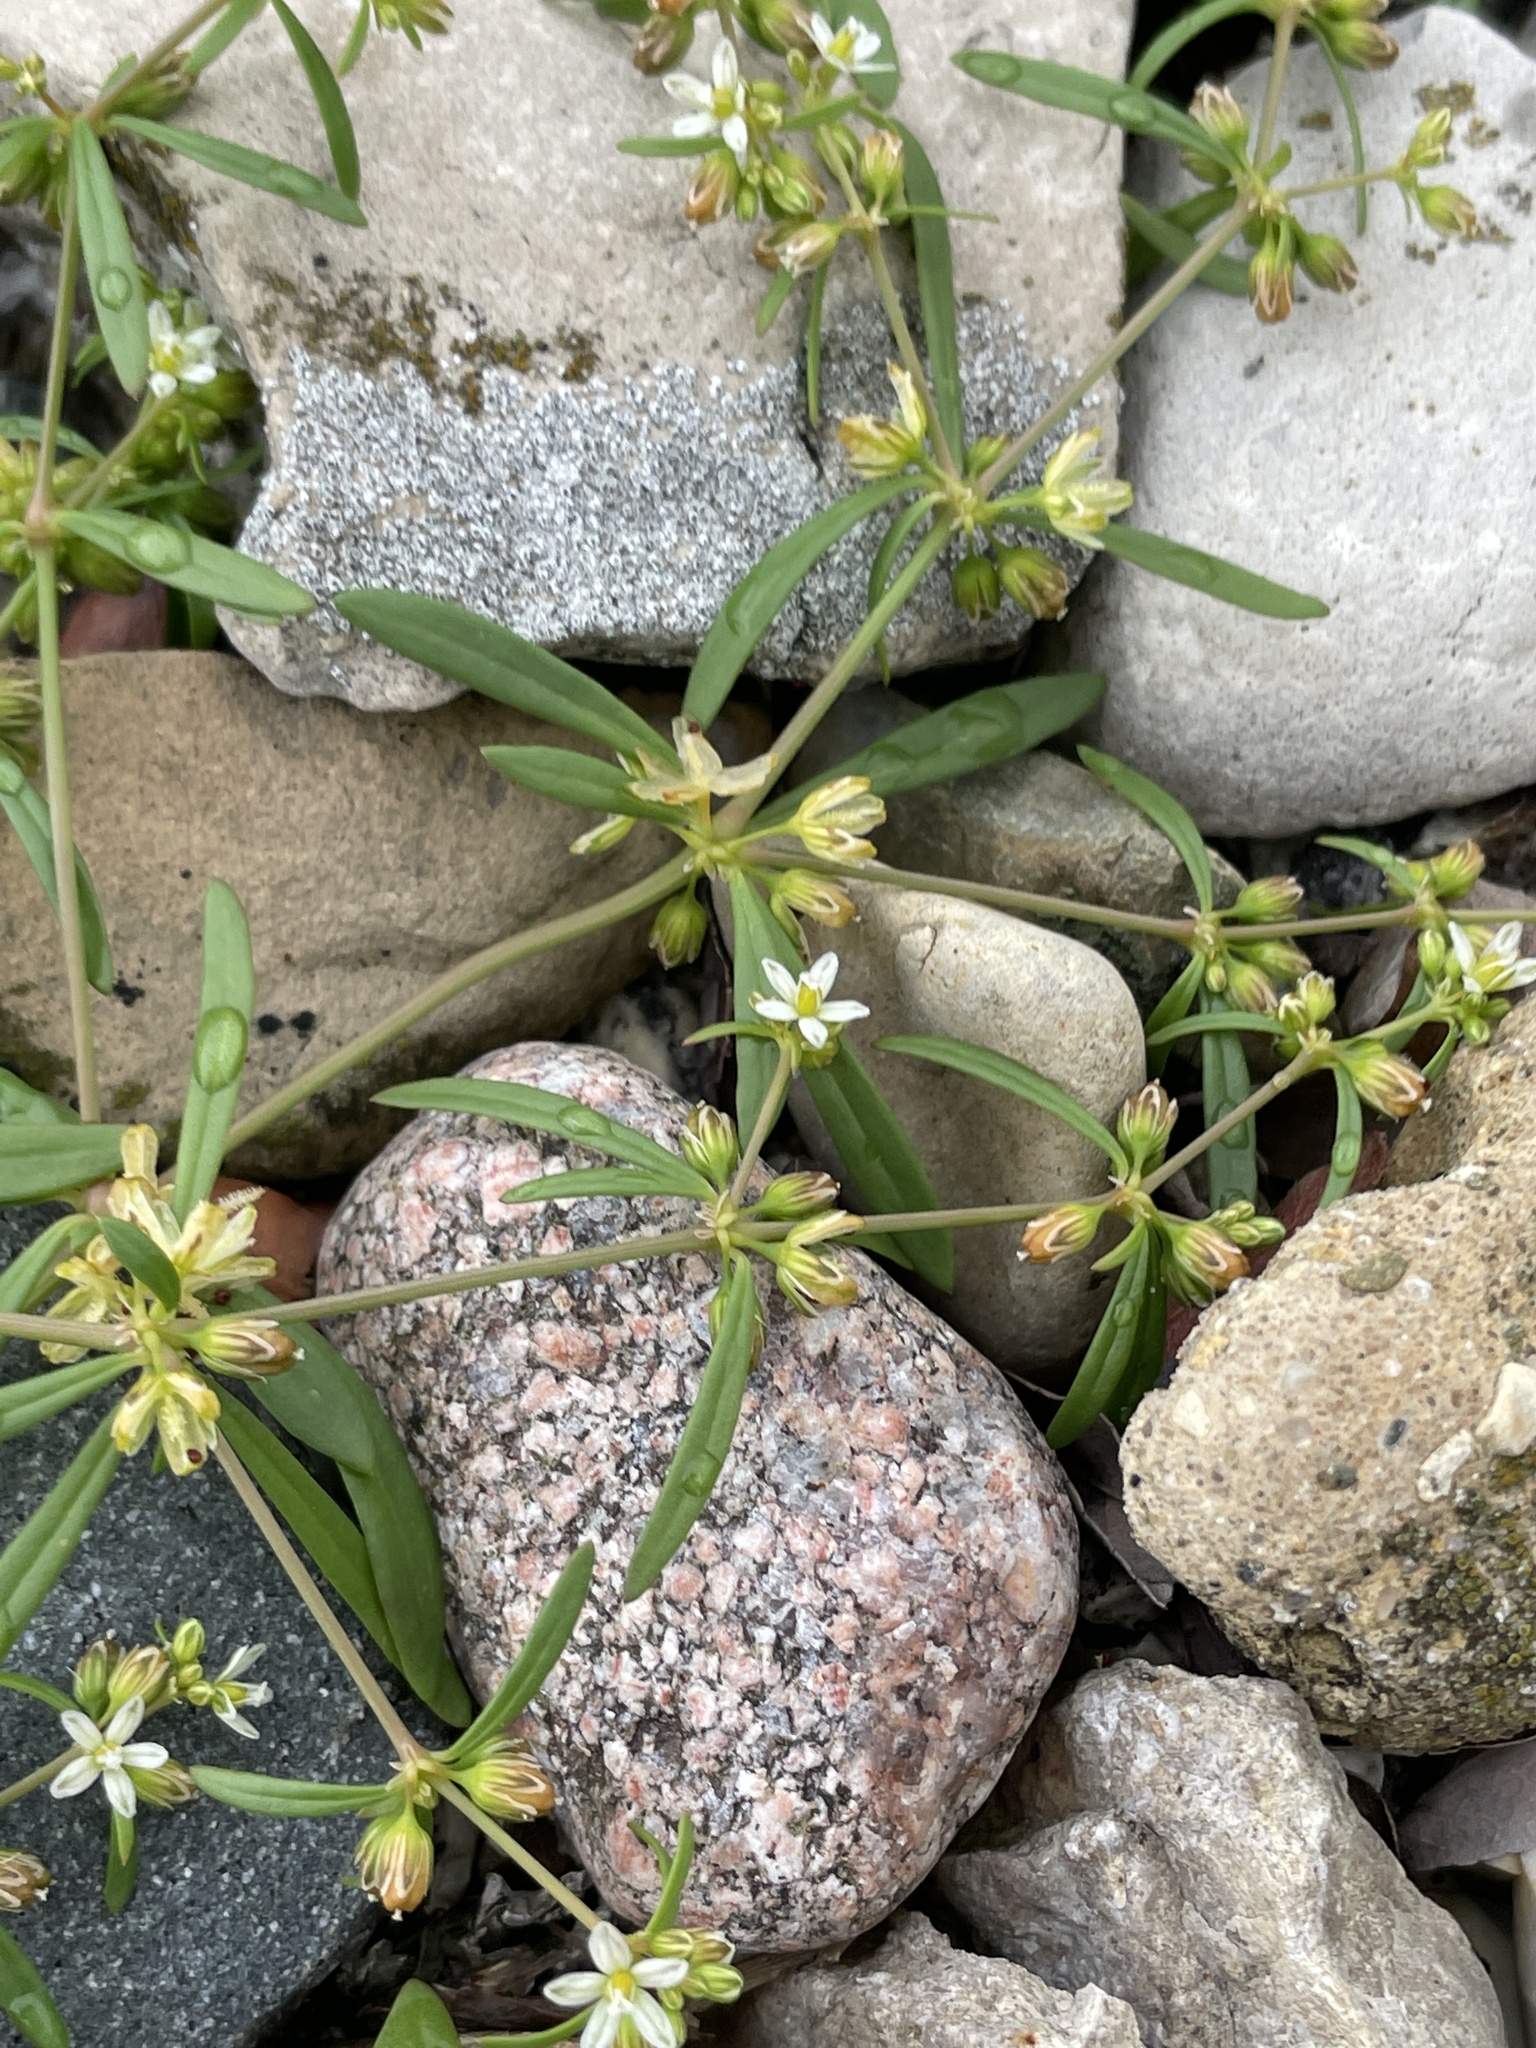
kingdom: Plantae
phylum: Tracheophyta
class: Magnoliopsida
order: Caryophyllales
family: Molluginaceae
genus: Mollugo
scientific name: Mollugo verticillata
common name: Green carpetweed
